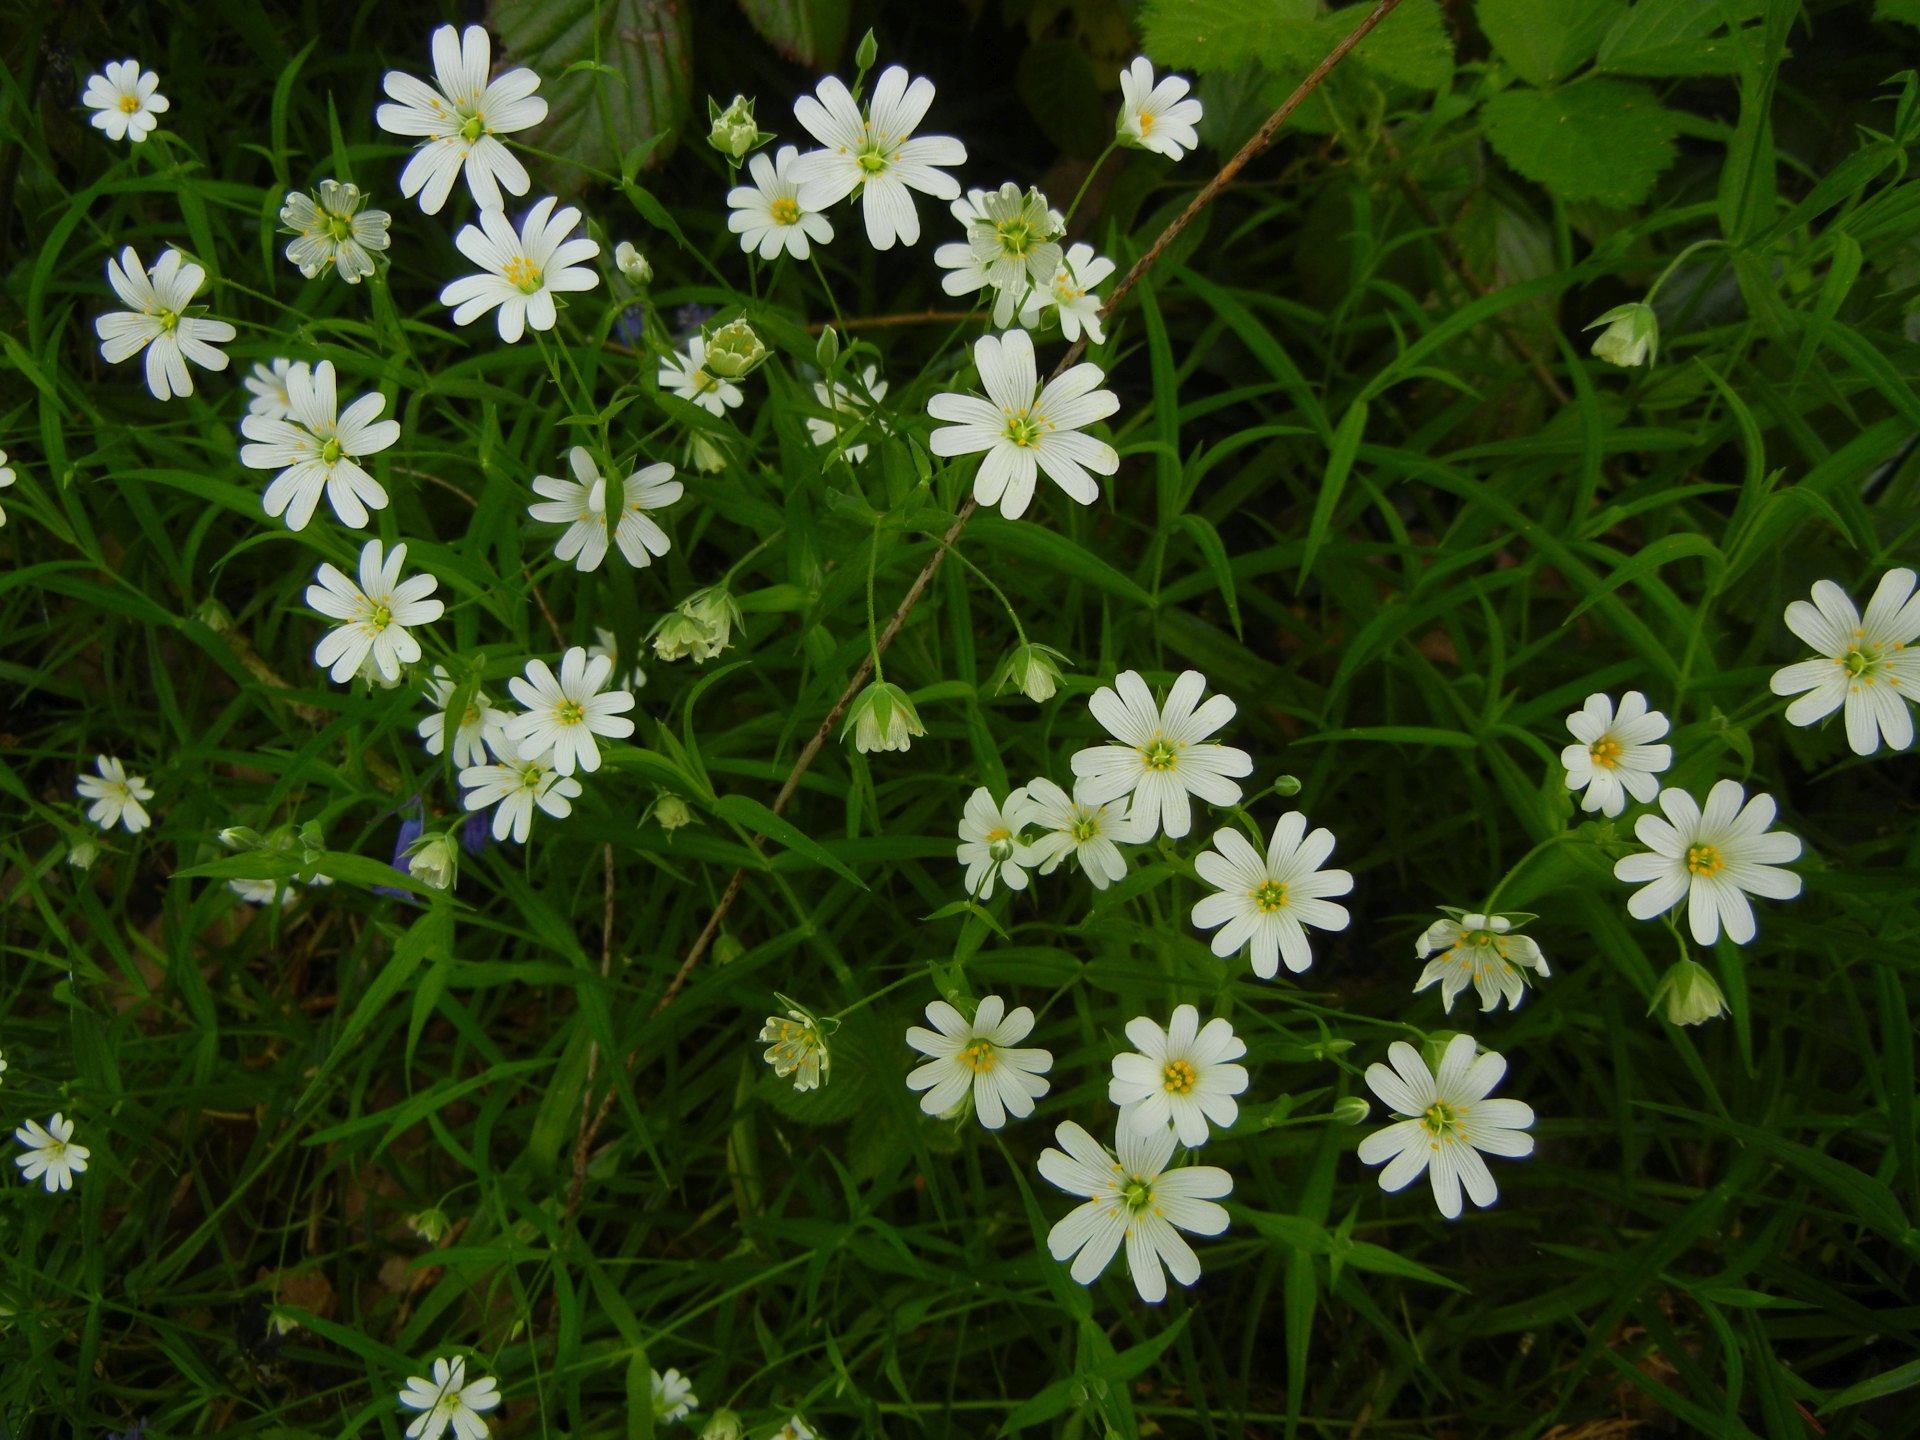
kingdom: Plantae
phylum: Tracheophyta
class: Magnoliopsida
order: Caryophyllales
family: Caryophyllaceae
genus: Rabelera
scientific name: Rabelera holostea
